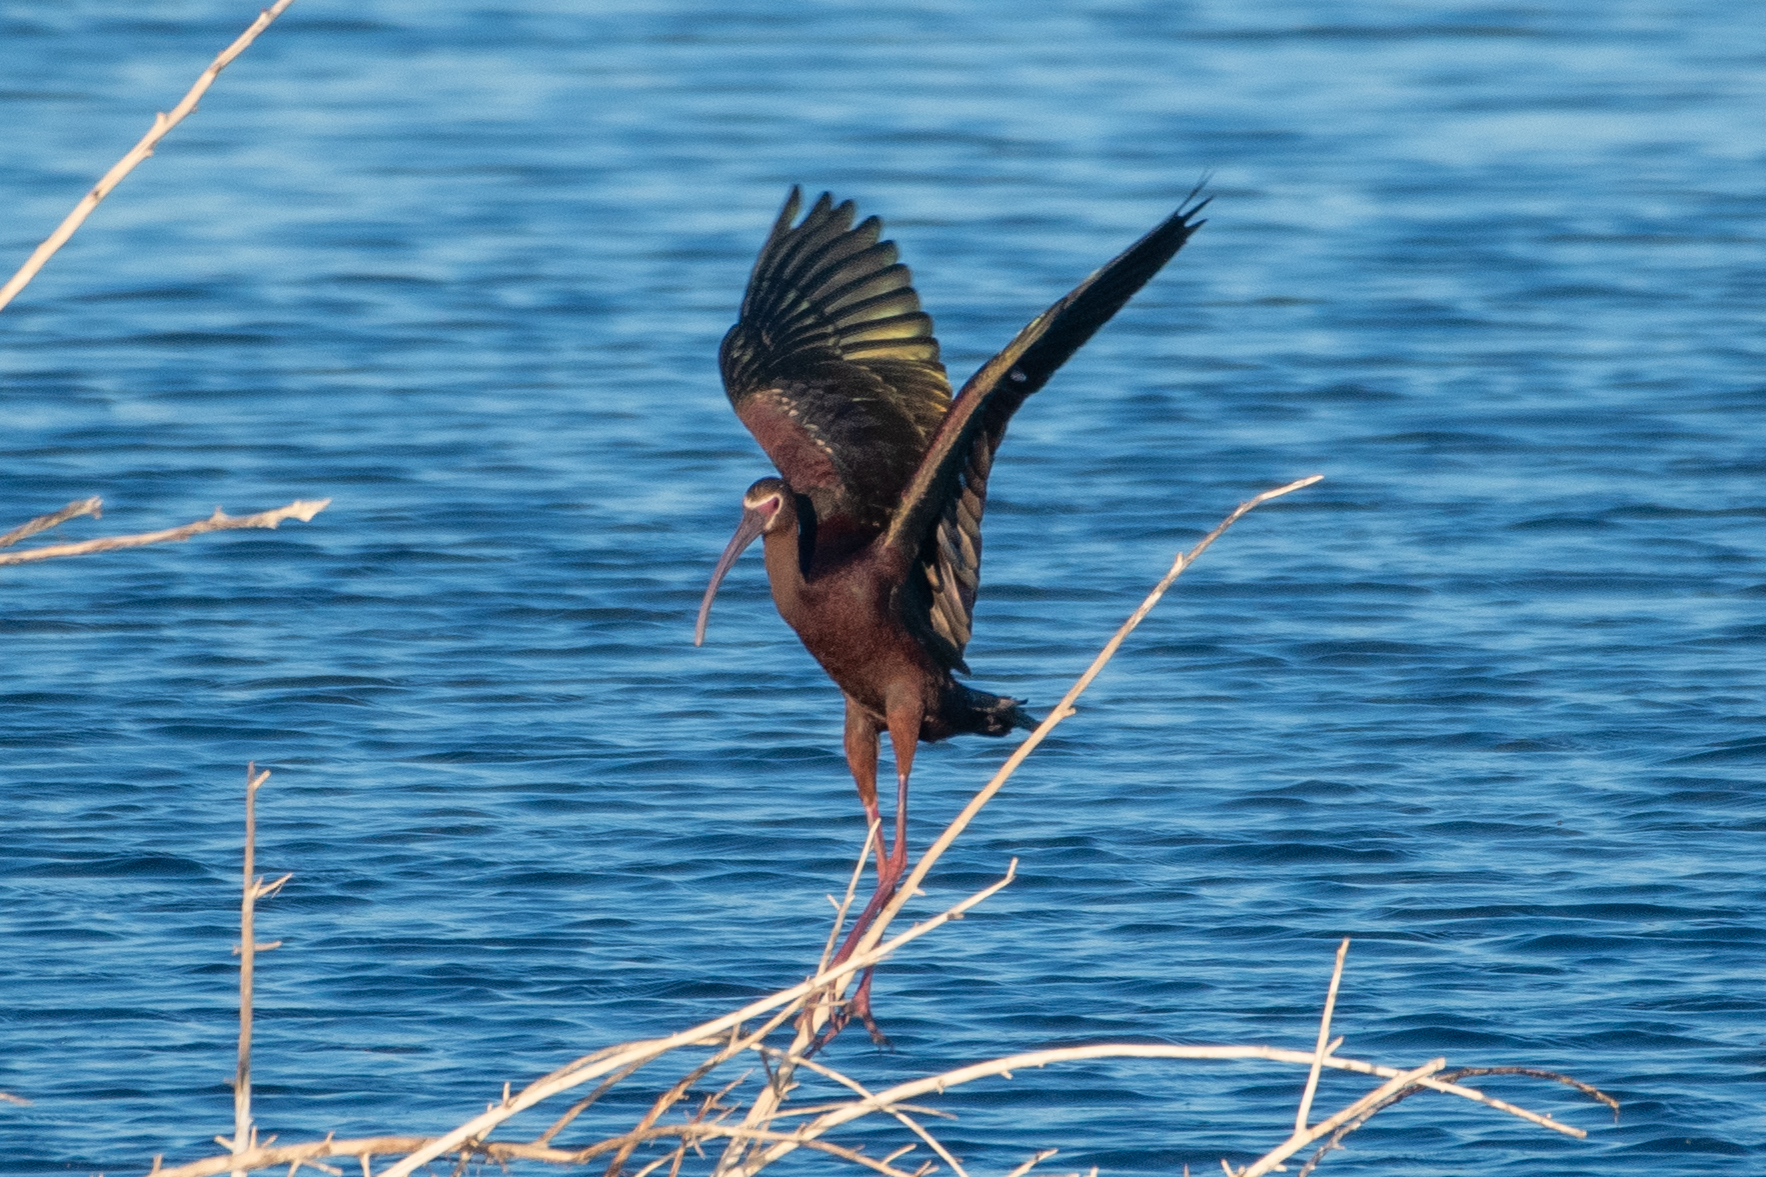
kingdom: Animalia
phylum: Chordata
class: Aves
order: Pelecaniformes
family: Threskiornithidae
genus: Plegadis
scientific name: Plegadis chihi
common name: White-faced ibis
